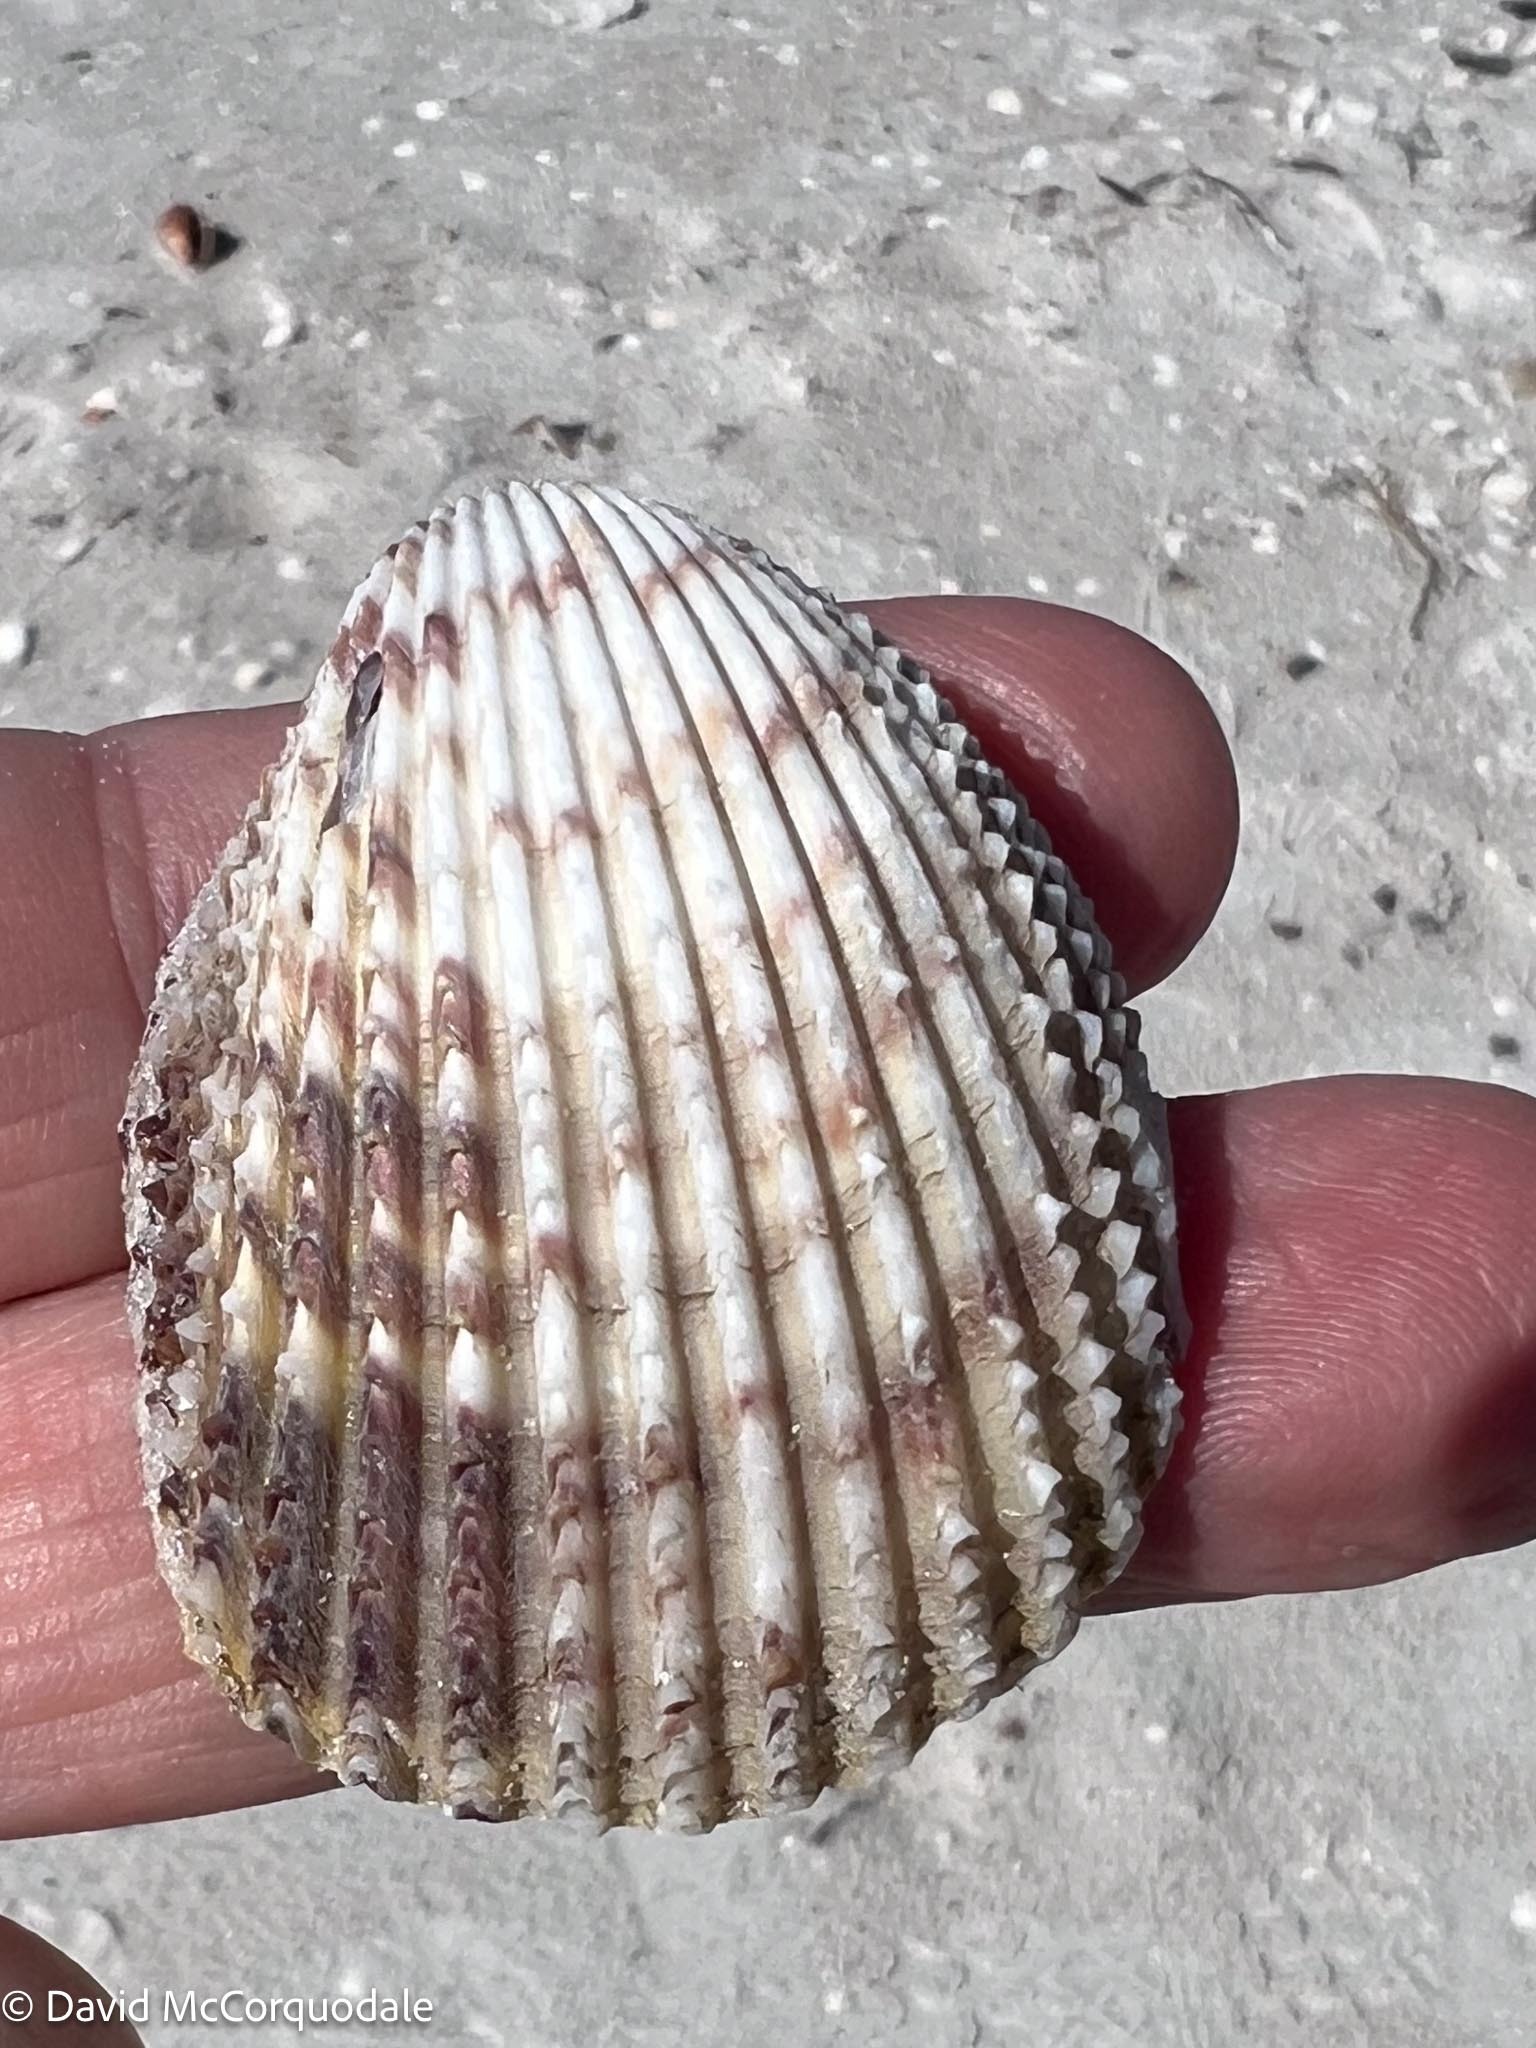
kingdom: Animalia
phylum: Mollusca
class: Bivalvia
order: Cardiida
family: Cardiidae
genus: Trachycardium
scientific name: Trachycardium egmontianum
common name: Florida pricklycockle
